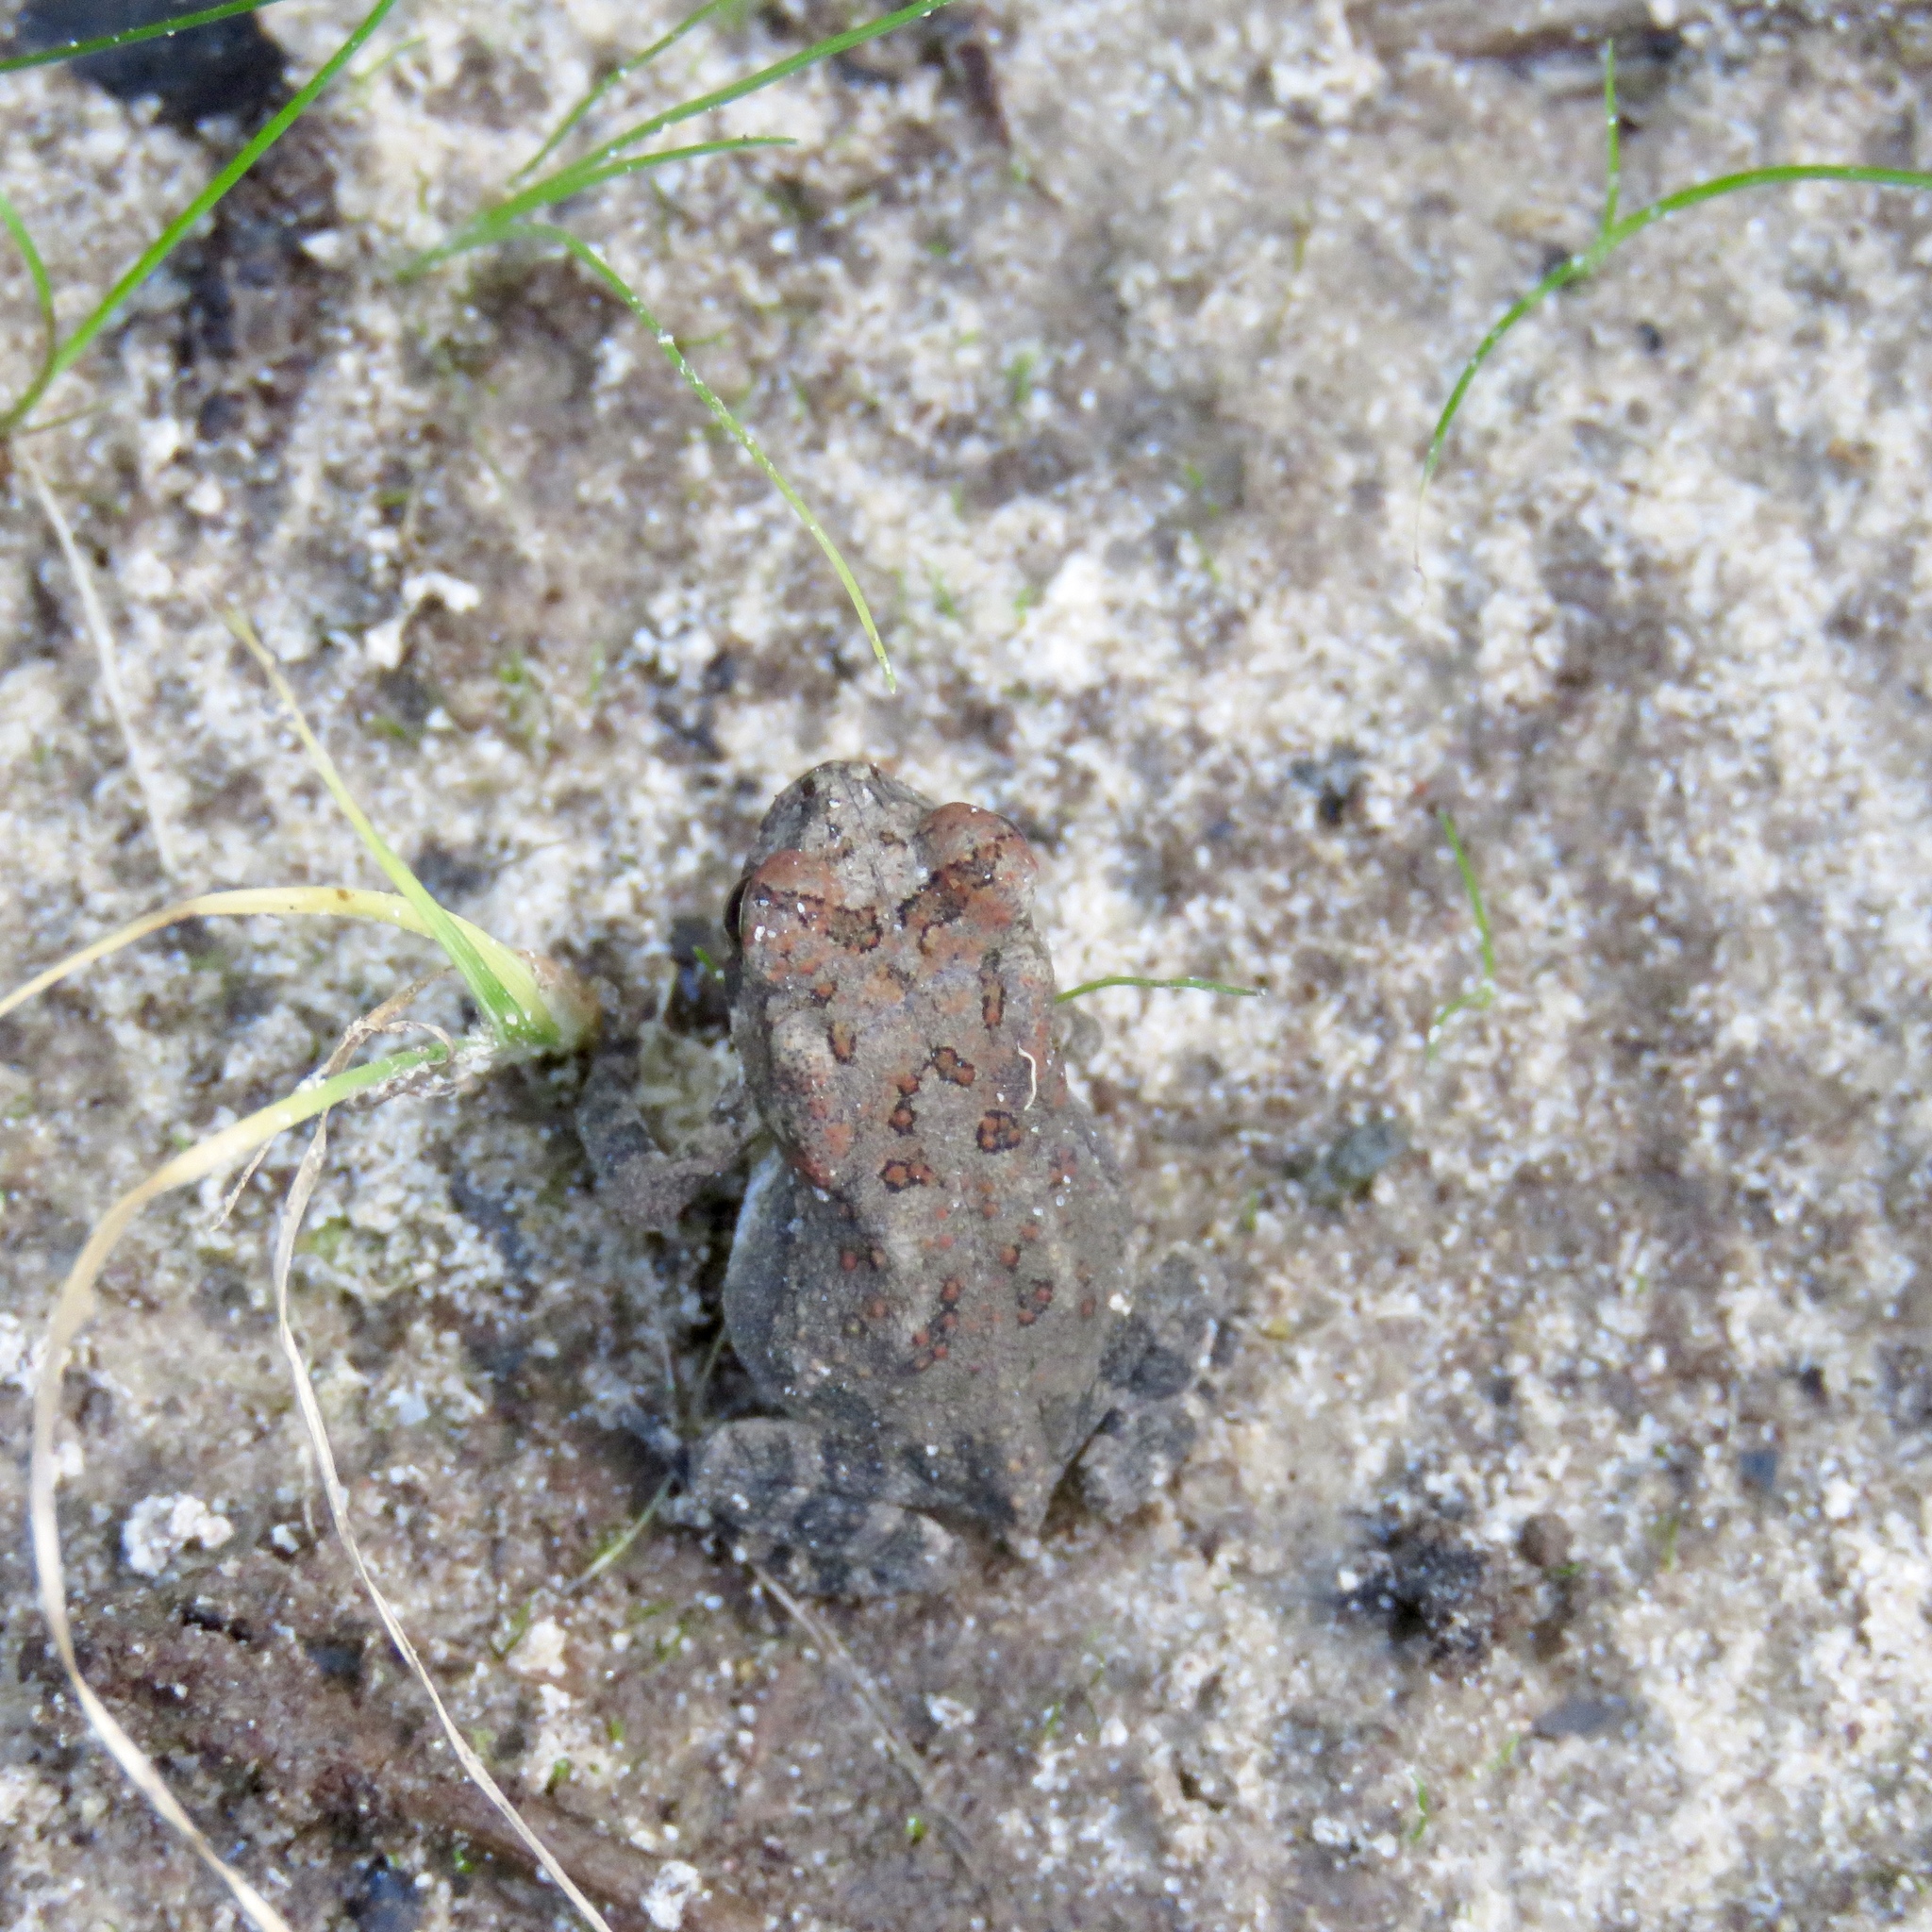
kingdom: Animalia
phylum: Chordata
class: Amphibia
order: Anura
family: Bufonidae
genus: Anaxyrus
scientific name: Anaxyrus fowleri
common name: Fowler's toad
